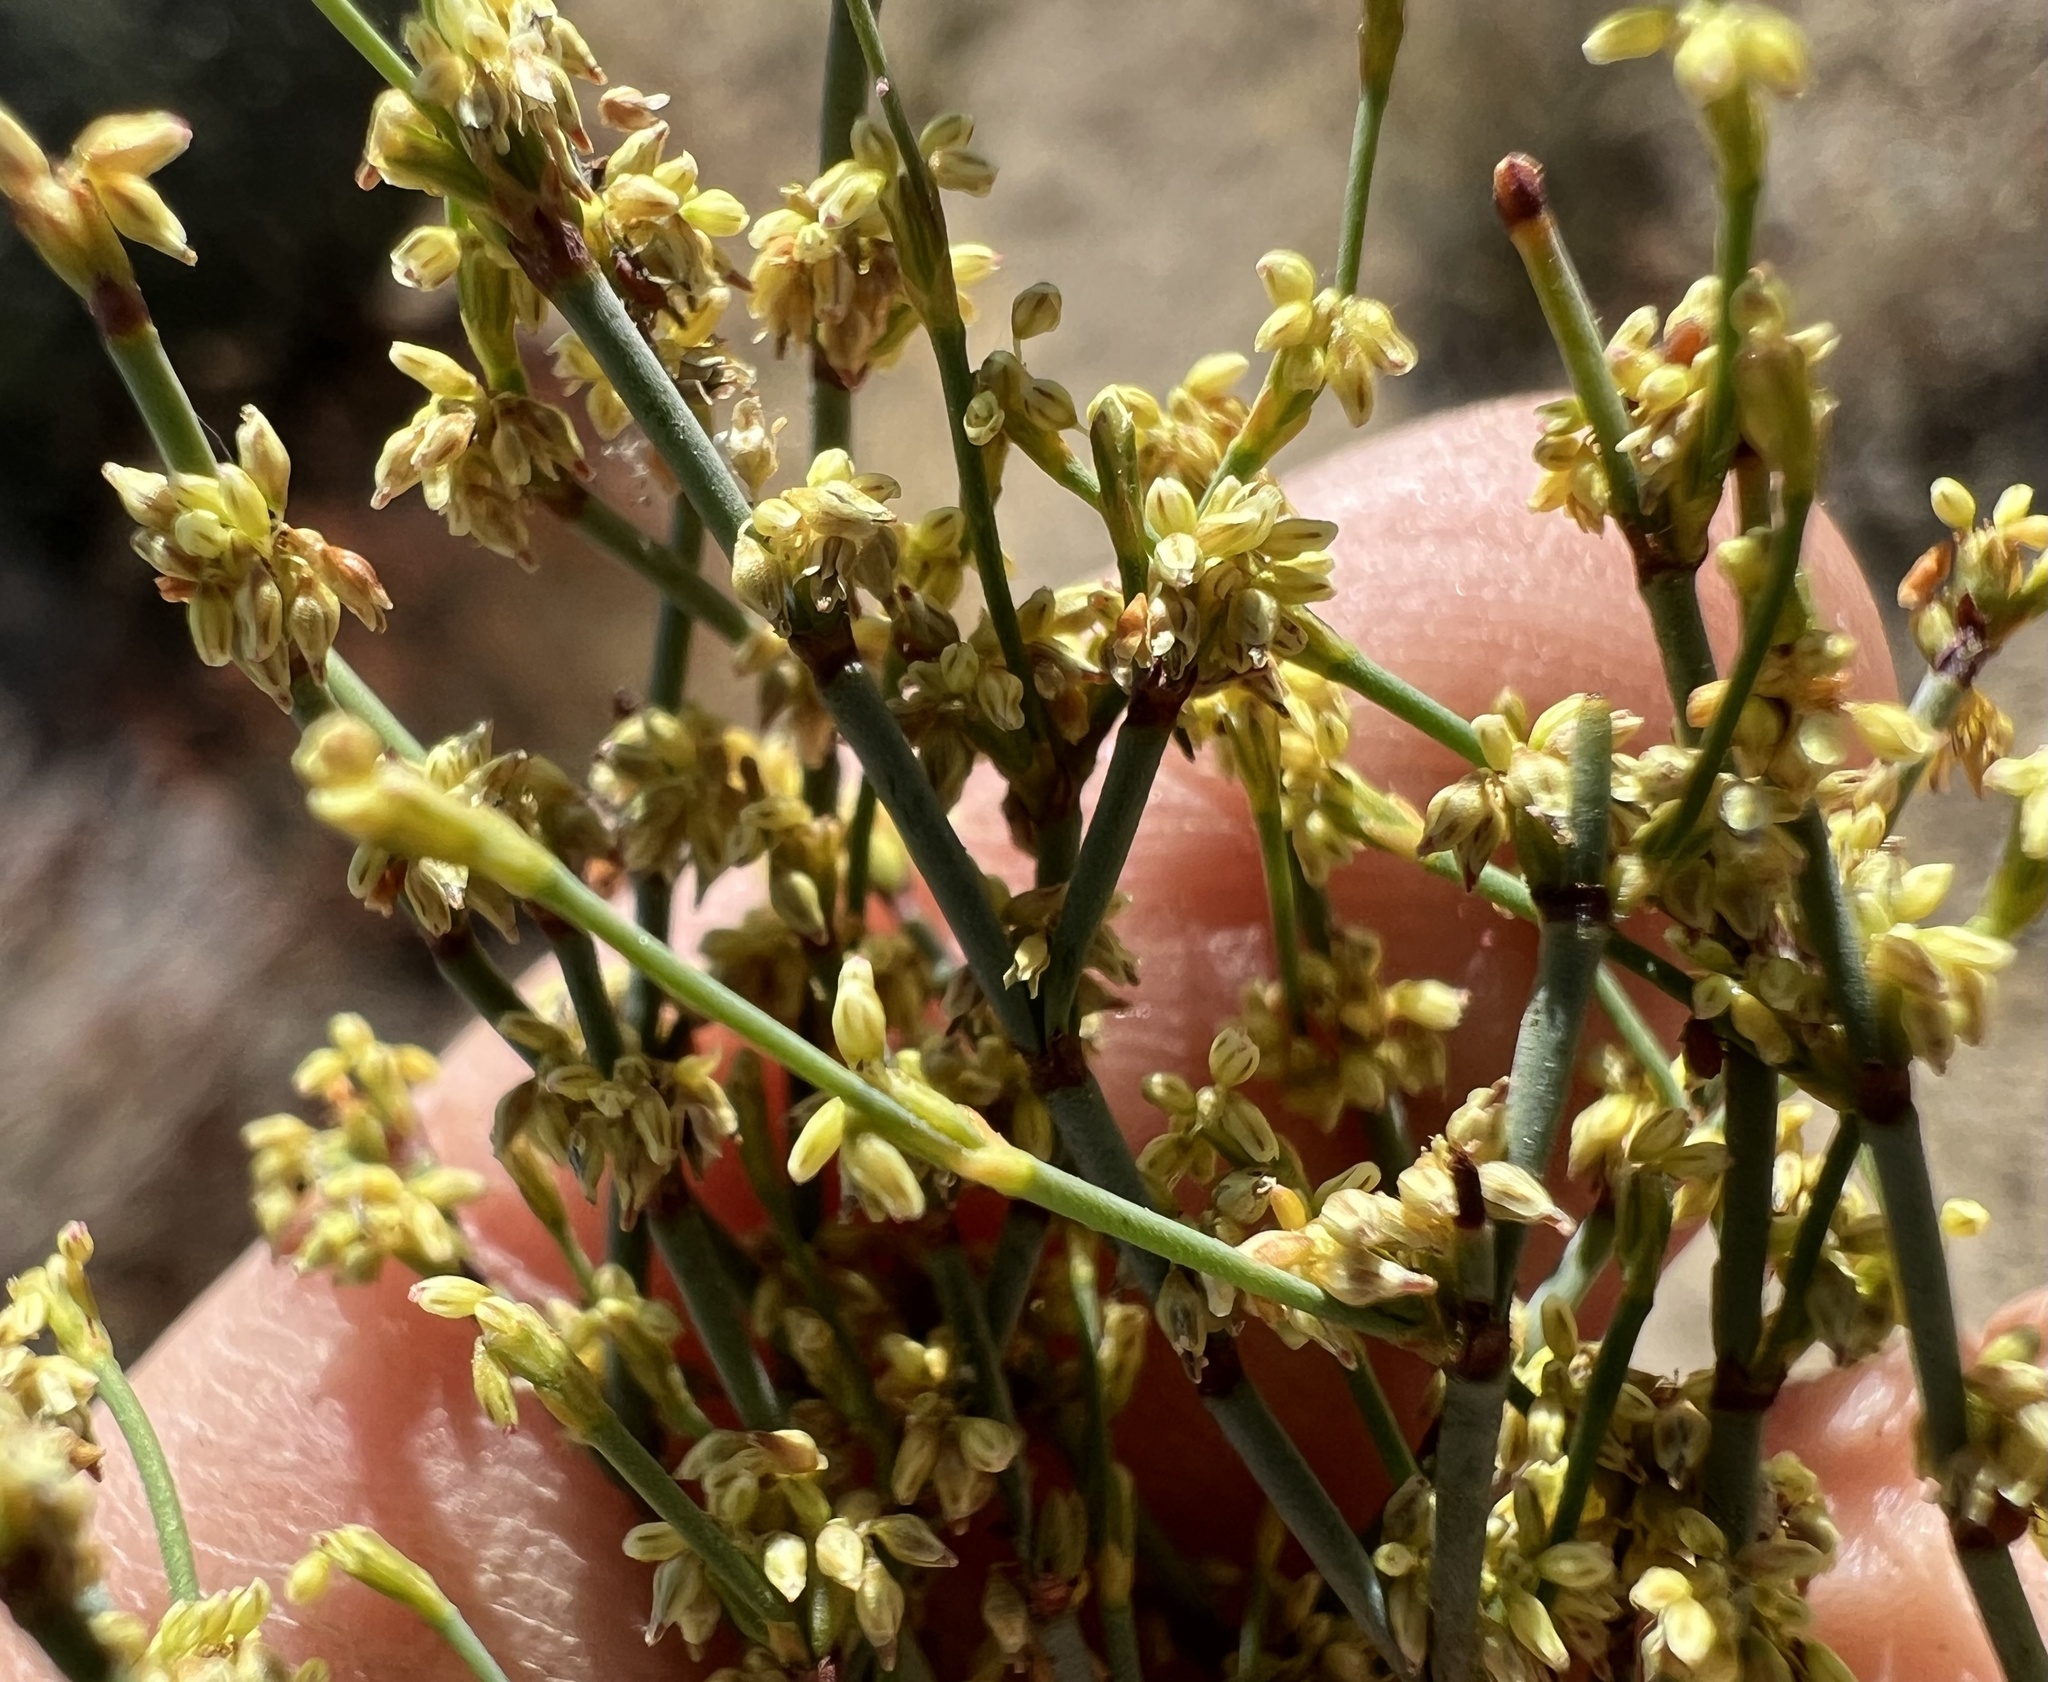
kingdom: Plantae
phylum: Tracheophyta
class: Magnoliopsida
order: Caryophyllales
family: Polygonaceae
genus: Eriogonum
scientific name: Eriogonum brachyanthum
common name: Short-flower wild buckwheat
